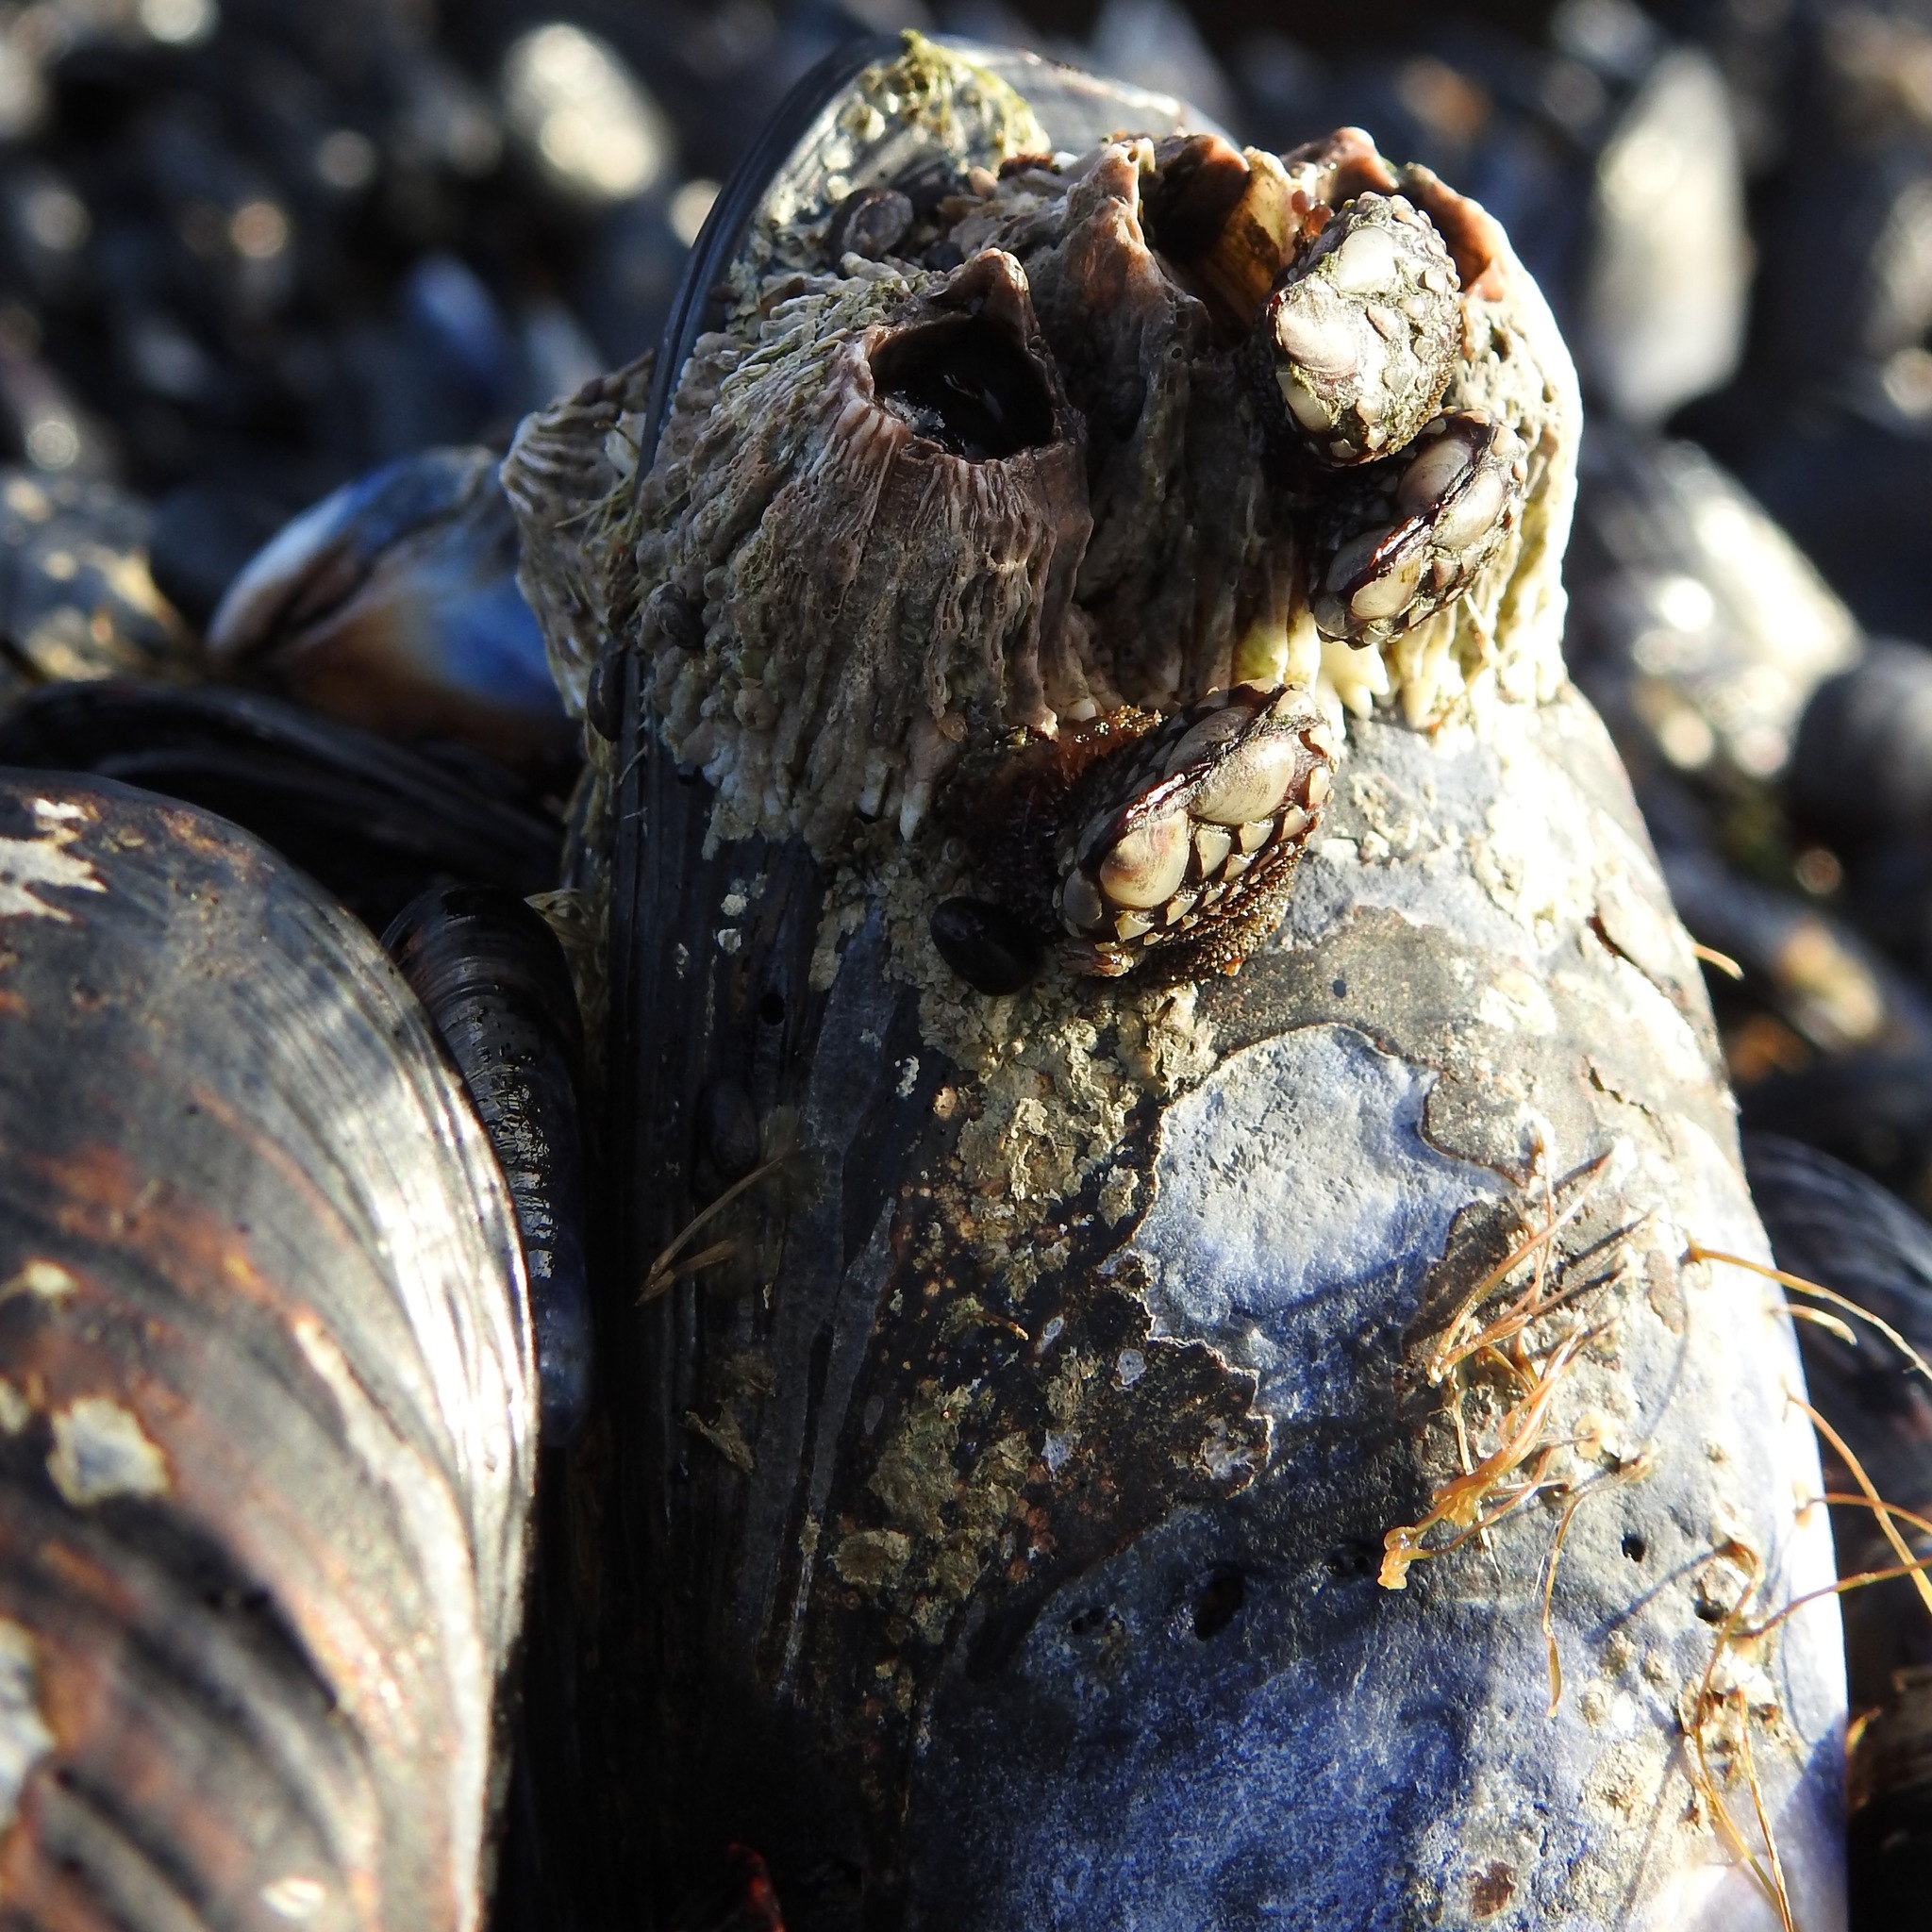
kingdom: Animalia
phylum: Arthropoda
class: Maxillopoda
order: Pedunculata
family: Pollicipedidae
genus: Pollicipes
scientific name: Pollicipes polymerus
